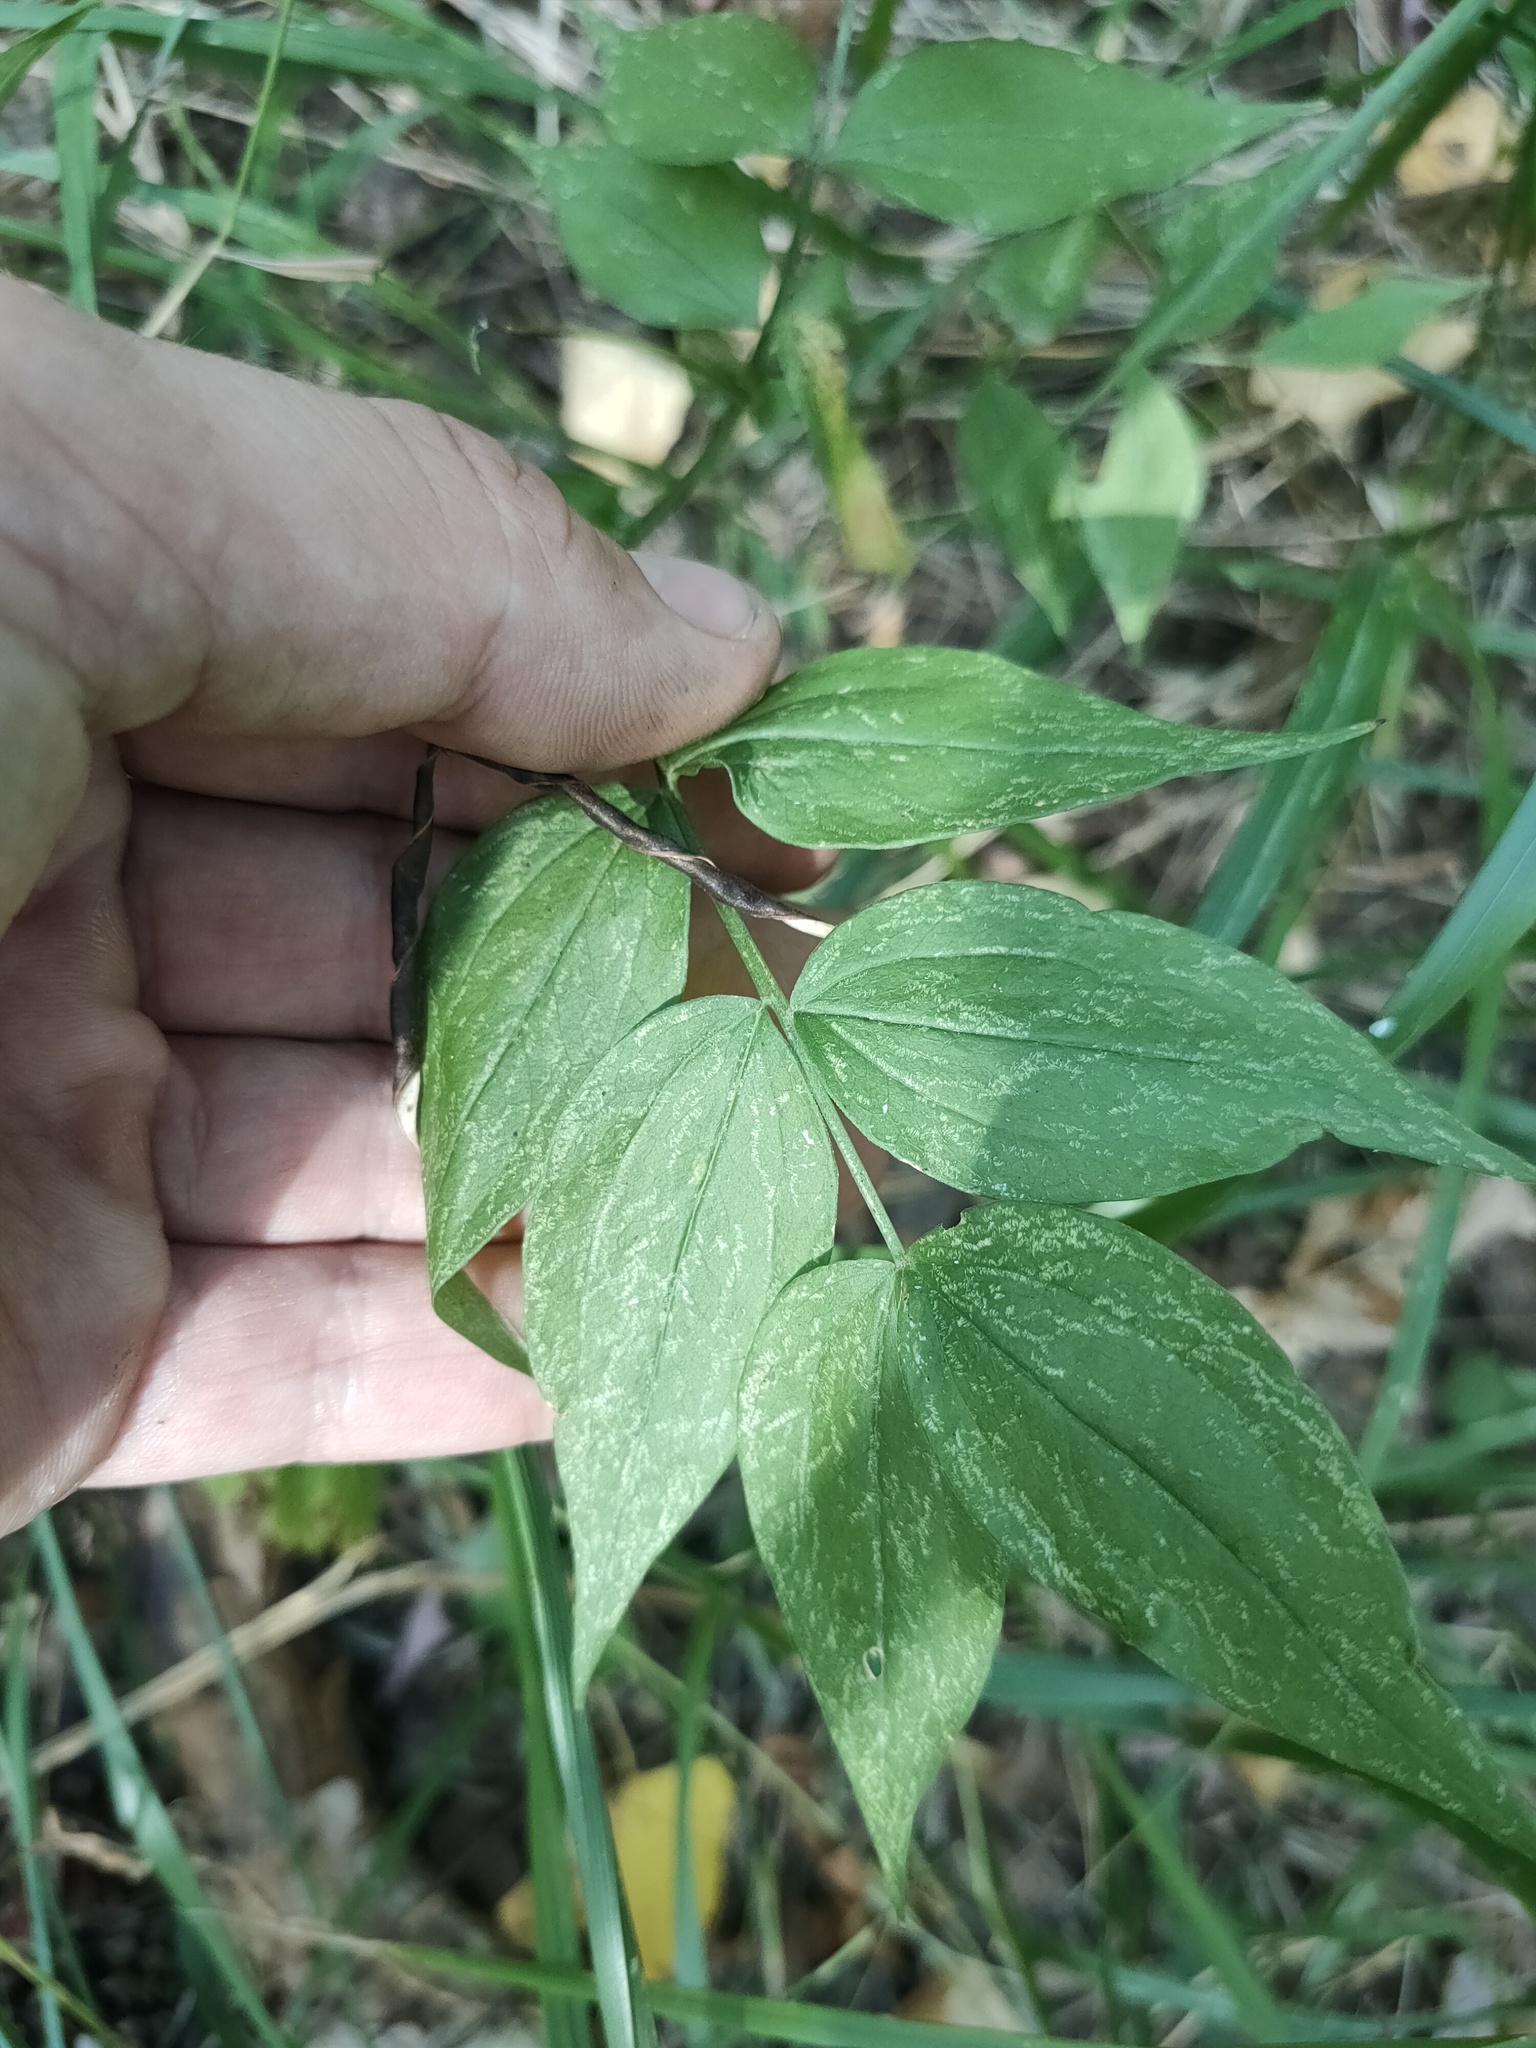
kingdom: Plantae
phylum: Tracheophyta
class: Magnoliopsida
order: Fabales
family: Fabaceae
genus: Lathyrus
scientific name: Lathyrus vernus
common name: Spring pea
